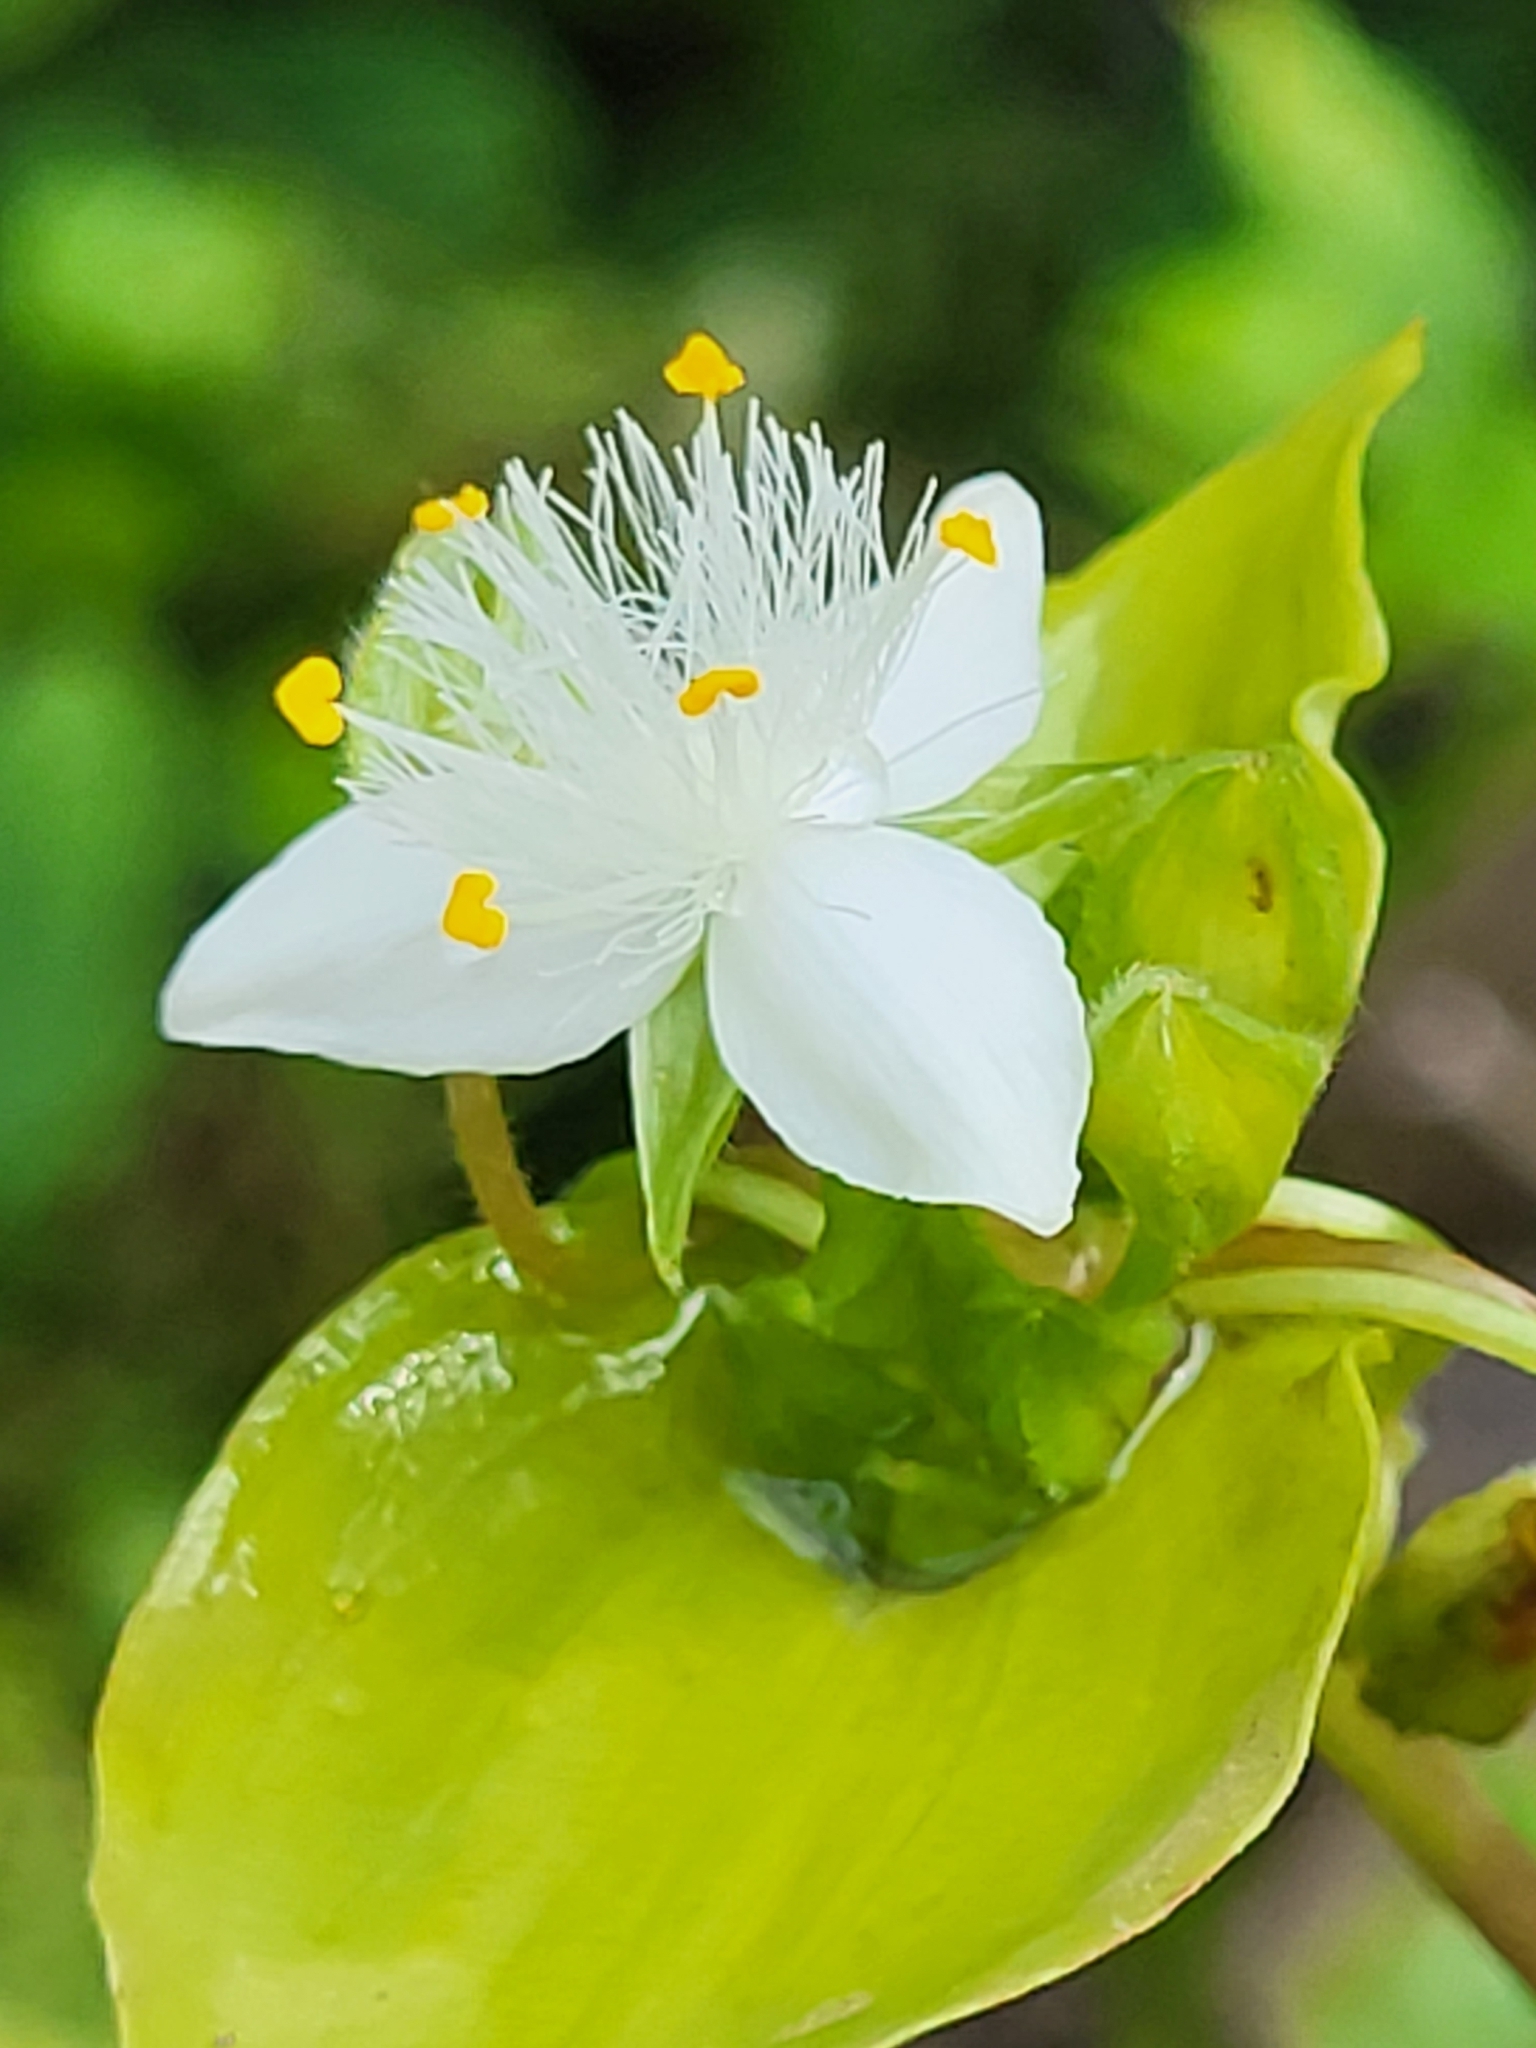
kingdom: Plantae
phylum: Tracheophyta
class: Liliopsida
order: Commelinales
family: Commelinaceae
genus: Tradescantia
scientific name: Tradescantia fluminensis
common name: Wandering-jew
